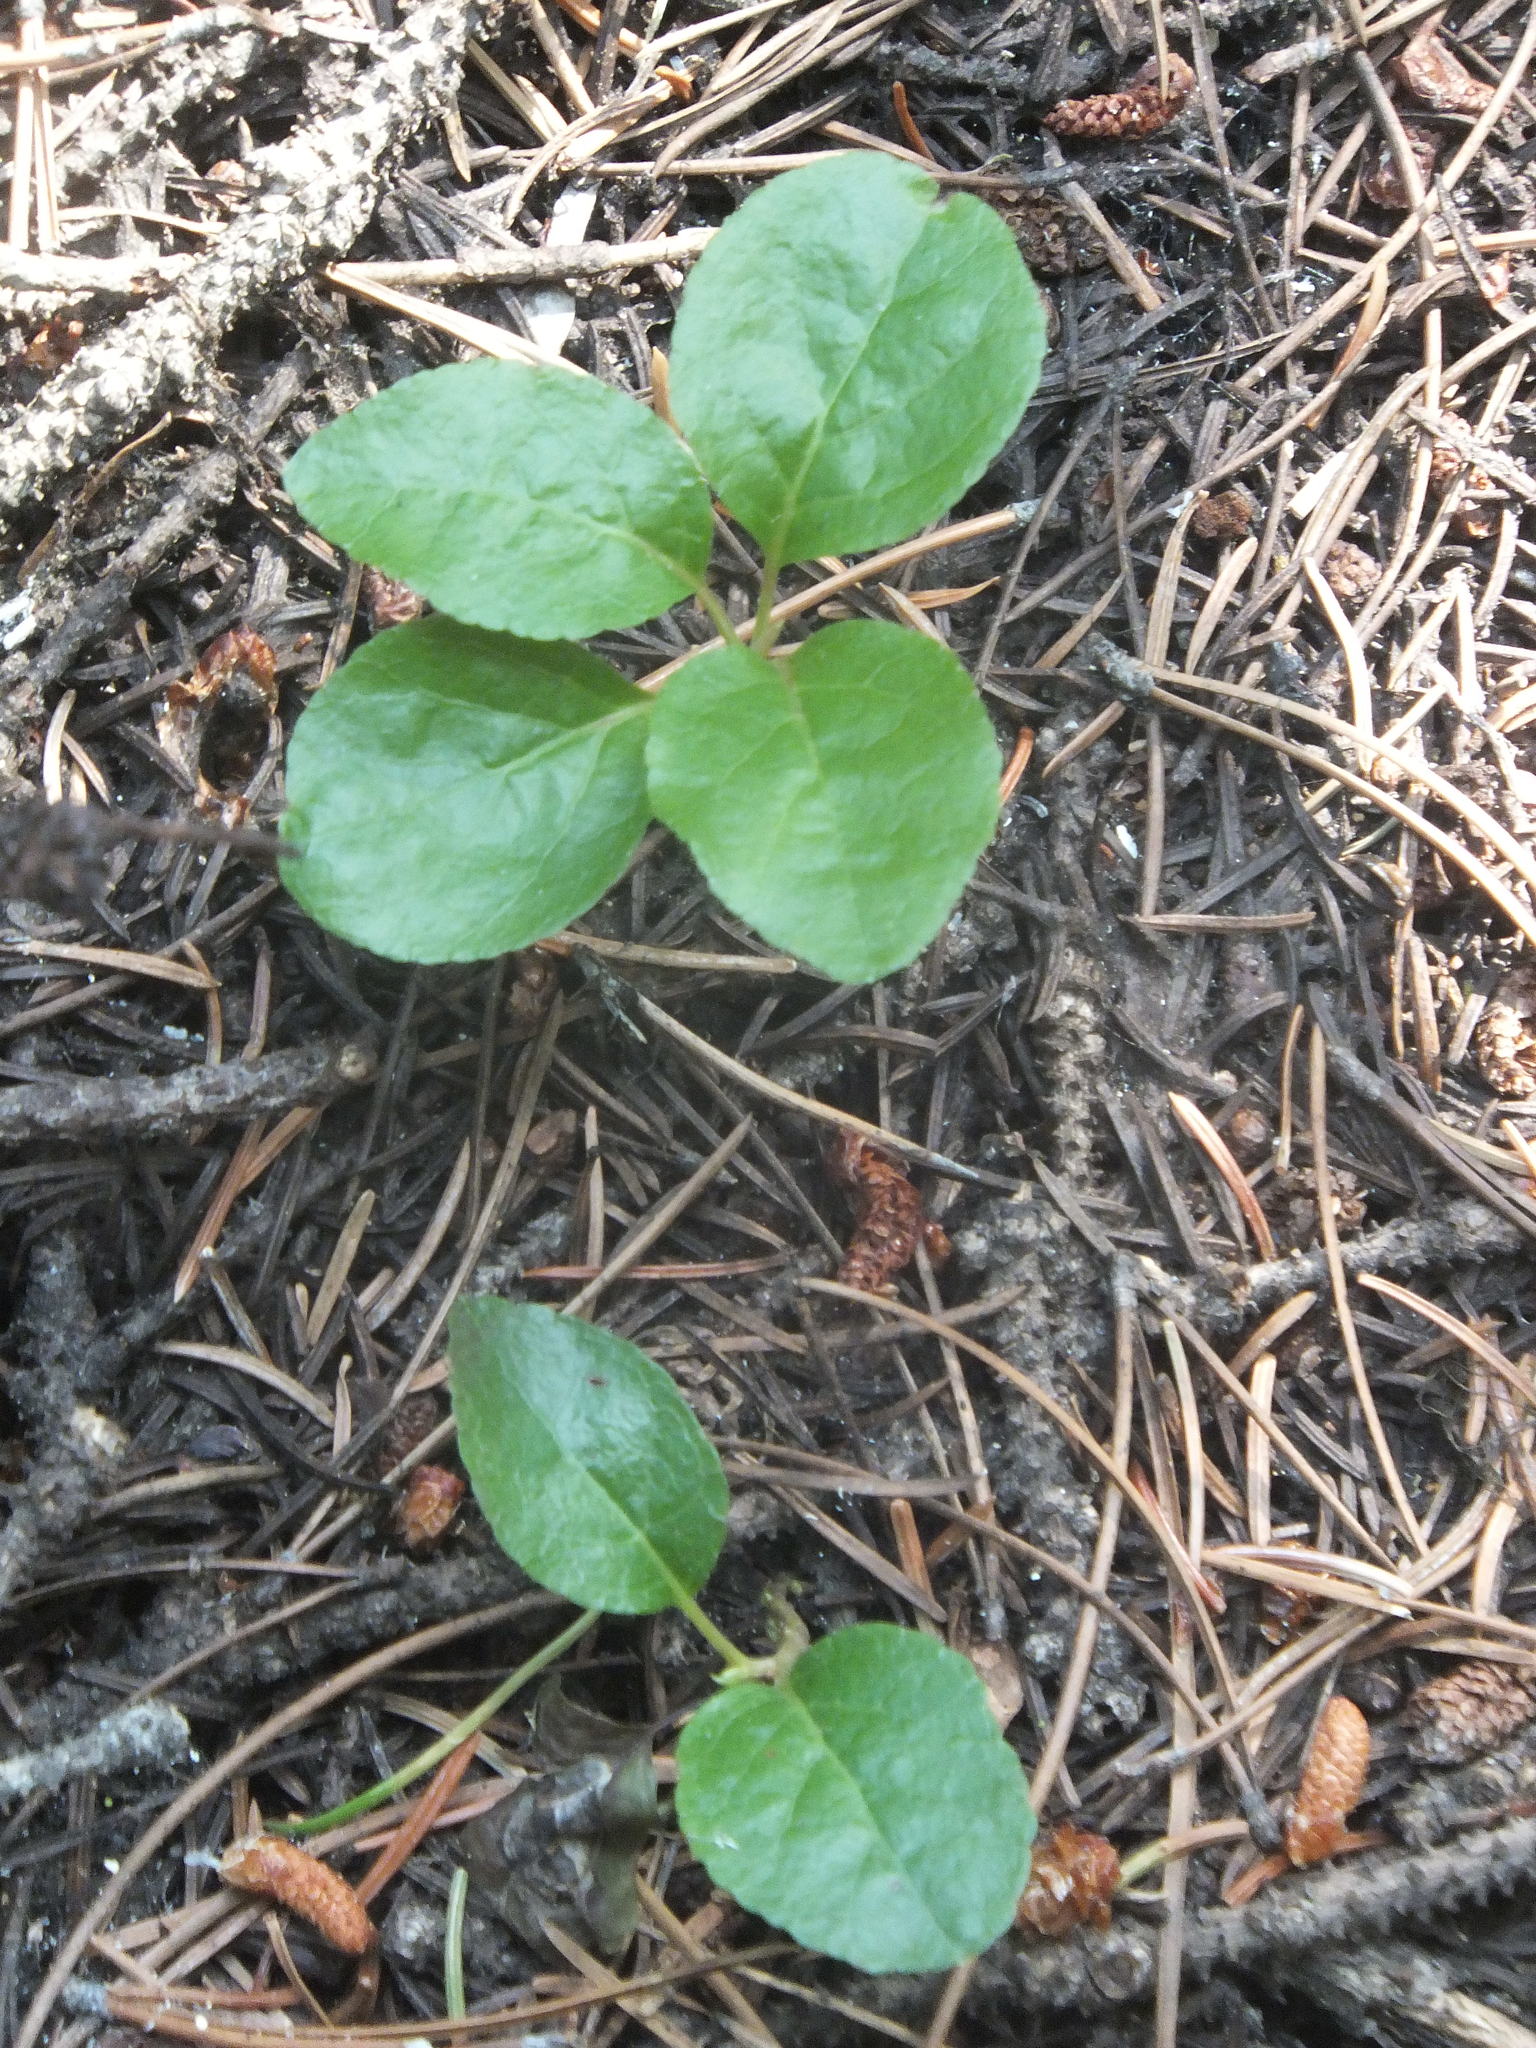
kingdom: Plantae
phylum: Tracheophyta
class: Magnoliopsida
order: Ericales
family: Ericaceae
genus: Orthilia
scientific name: Orthilia secunda
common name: One-sided orthilia
